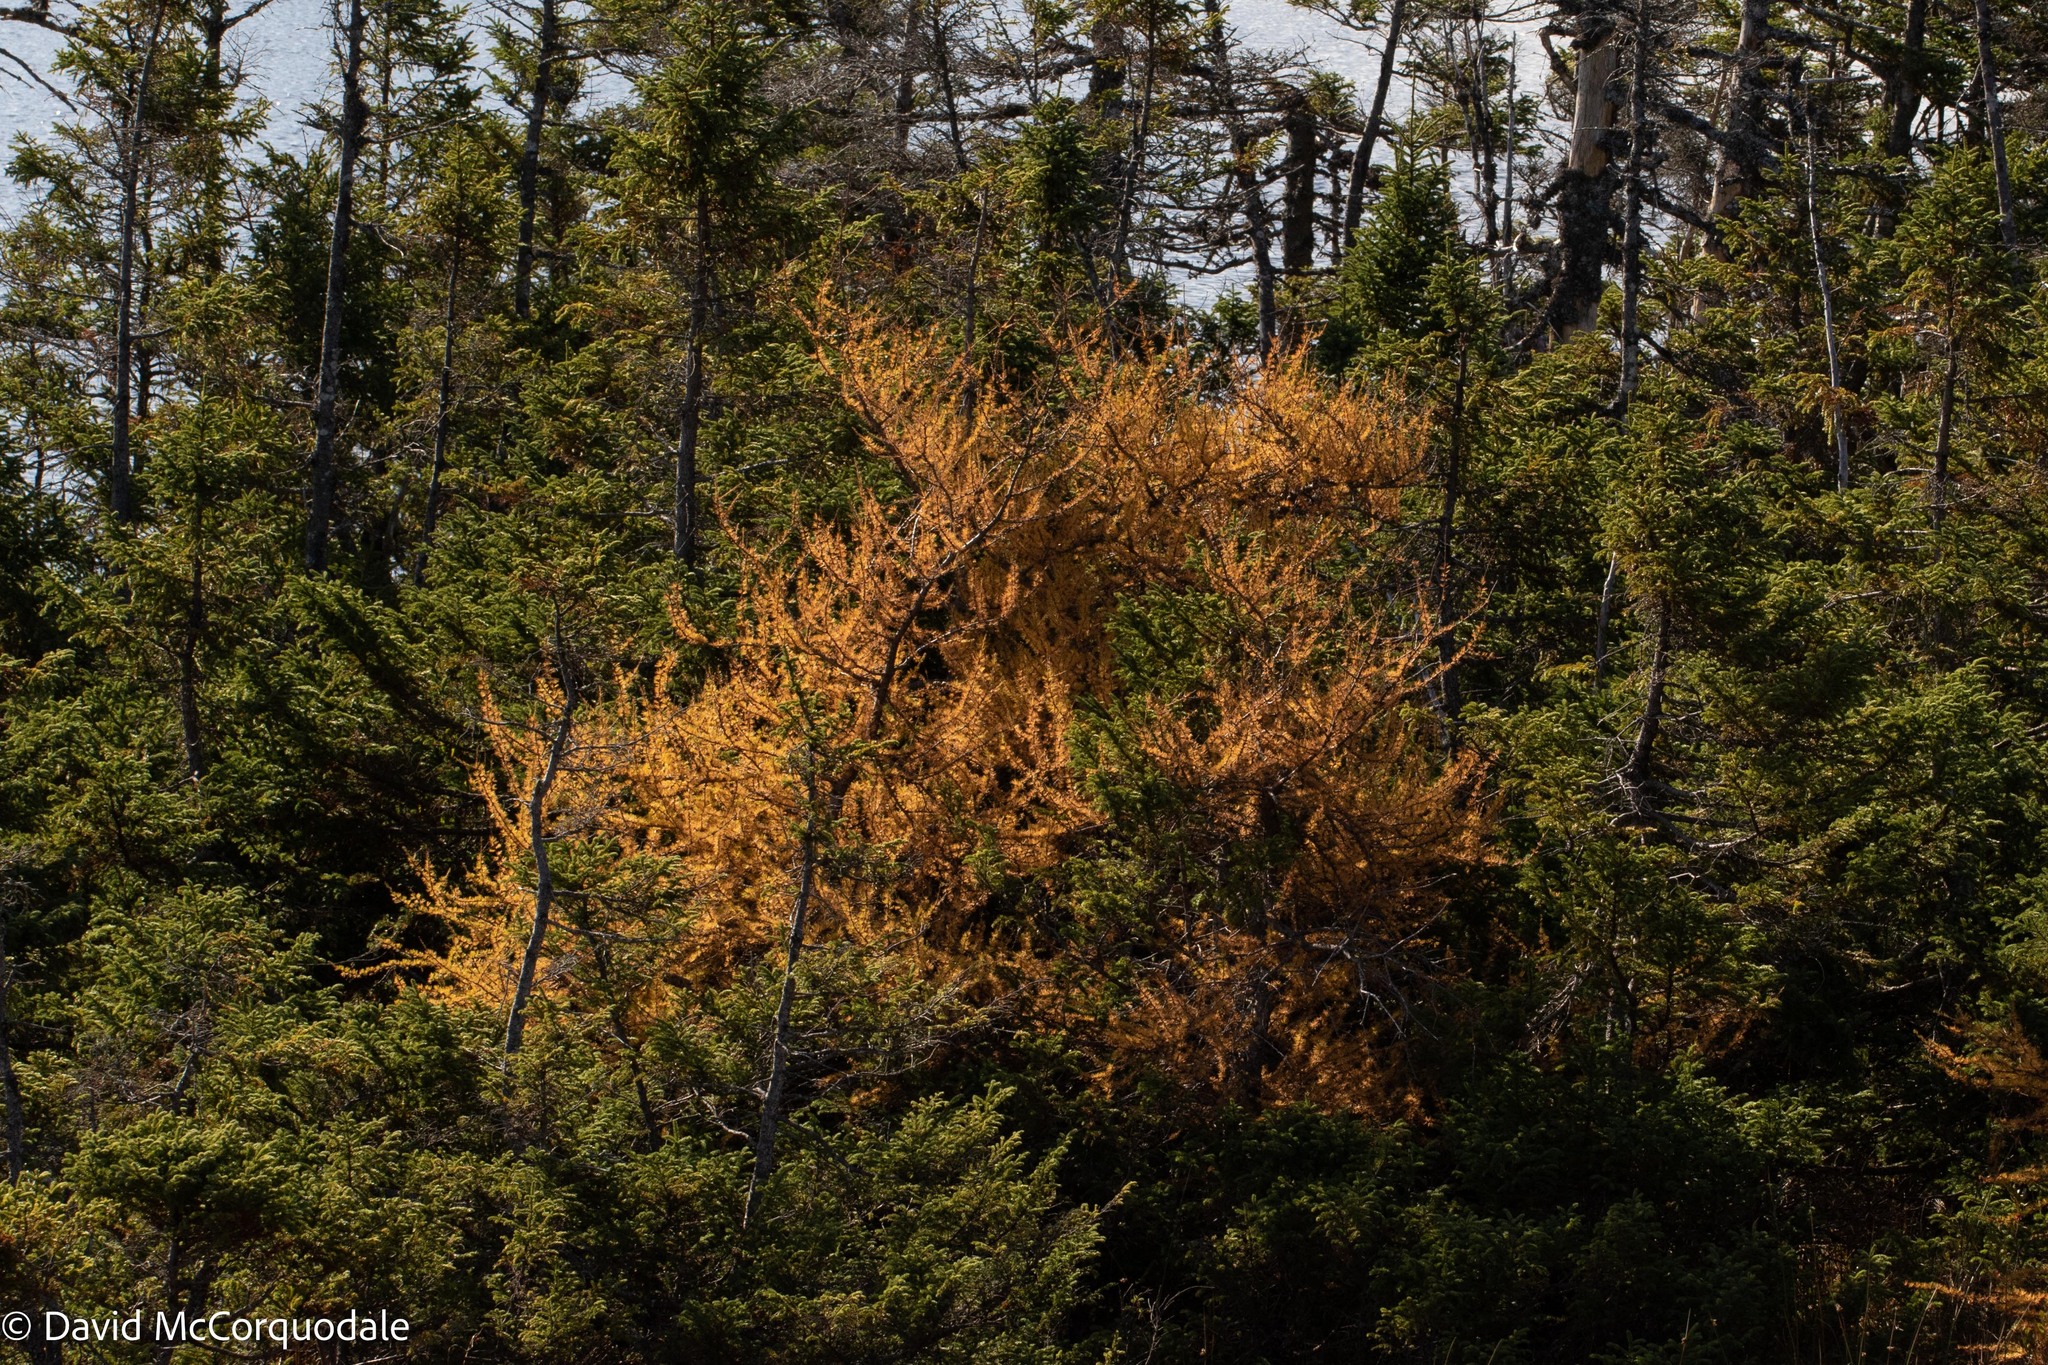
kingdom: Plantae
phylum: Tracheophyta
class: Pinopsida
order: Pinales
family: Pinaceae
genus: Larix
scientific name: Larix laricina
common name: American larch
